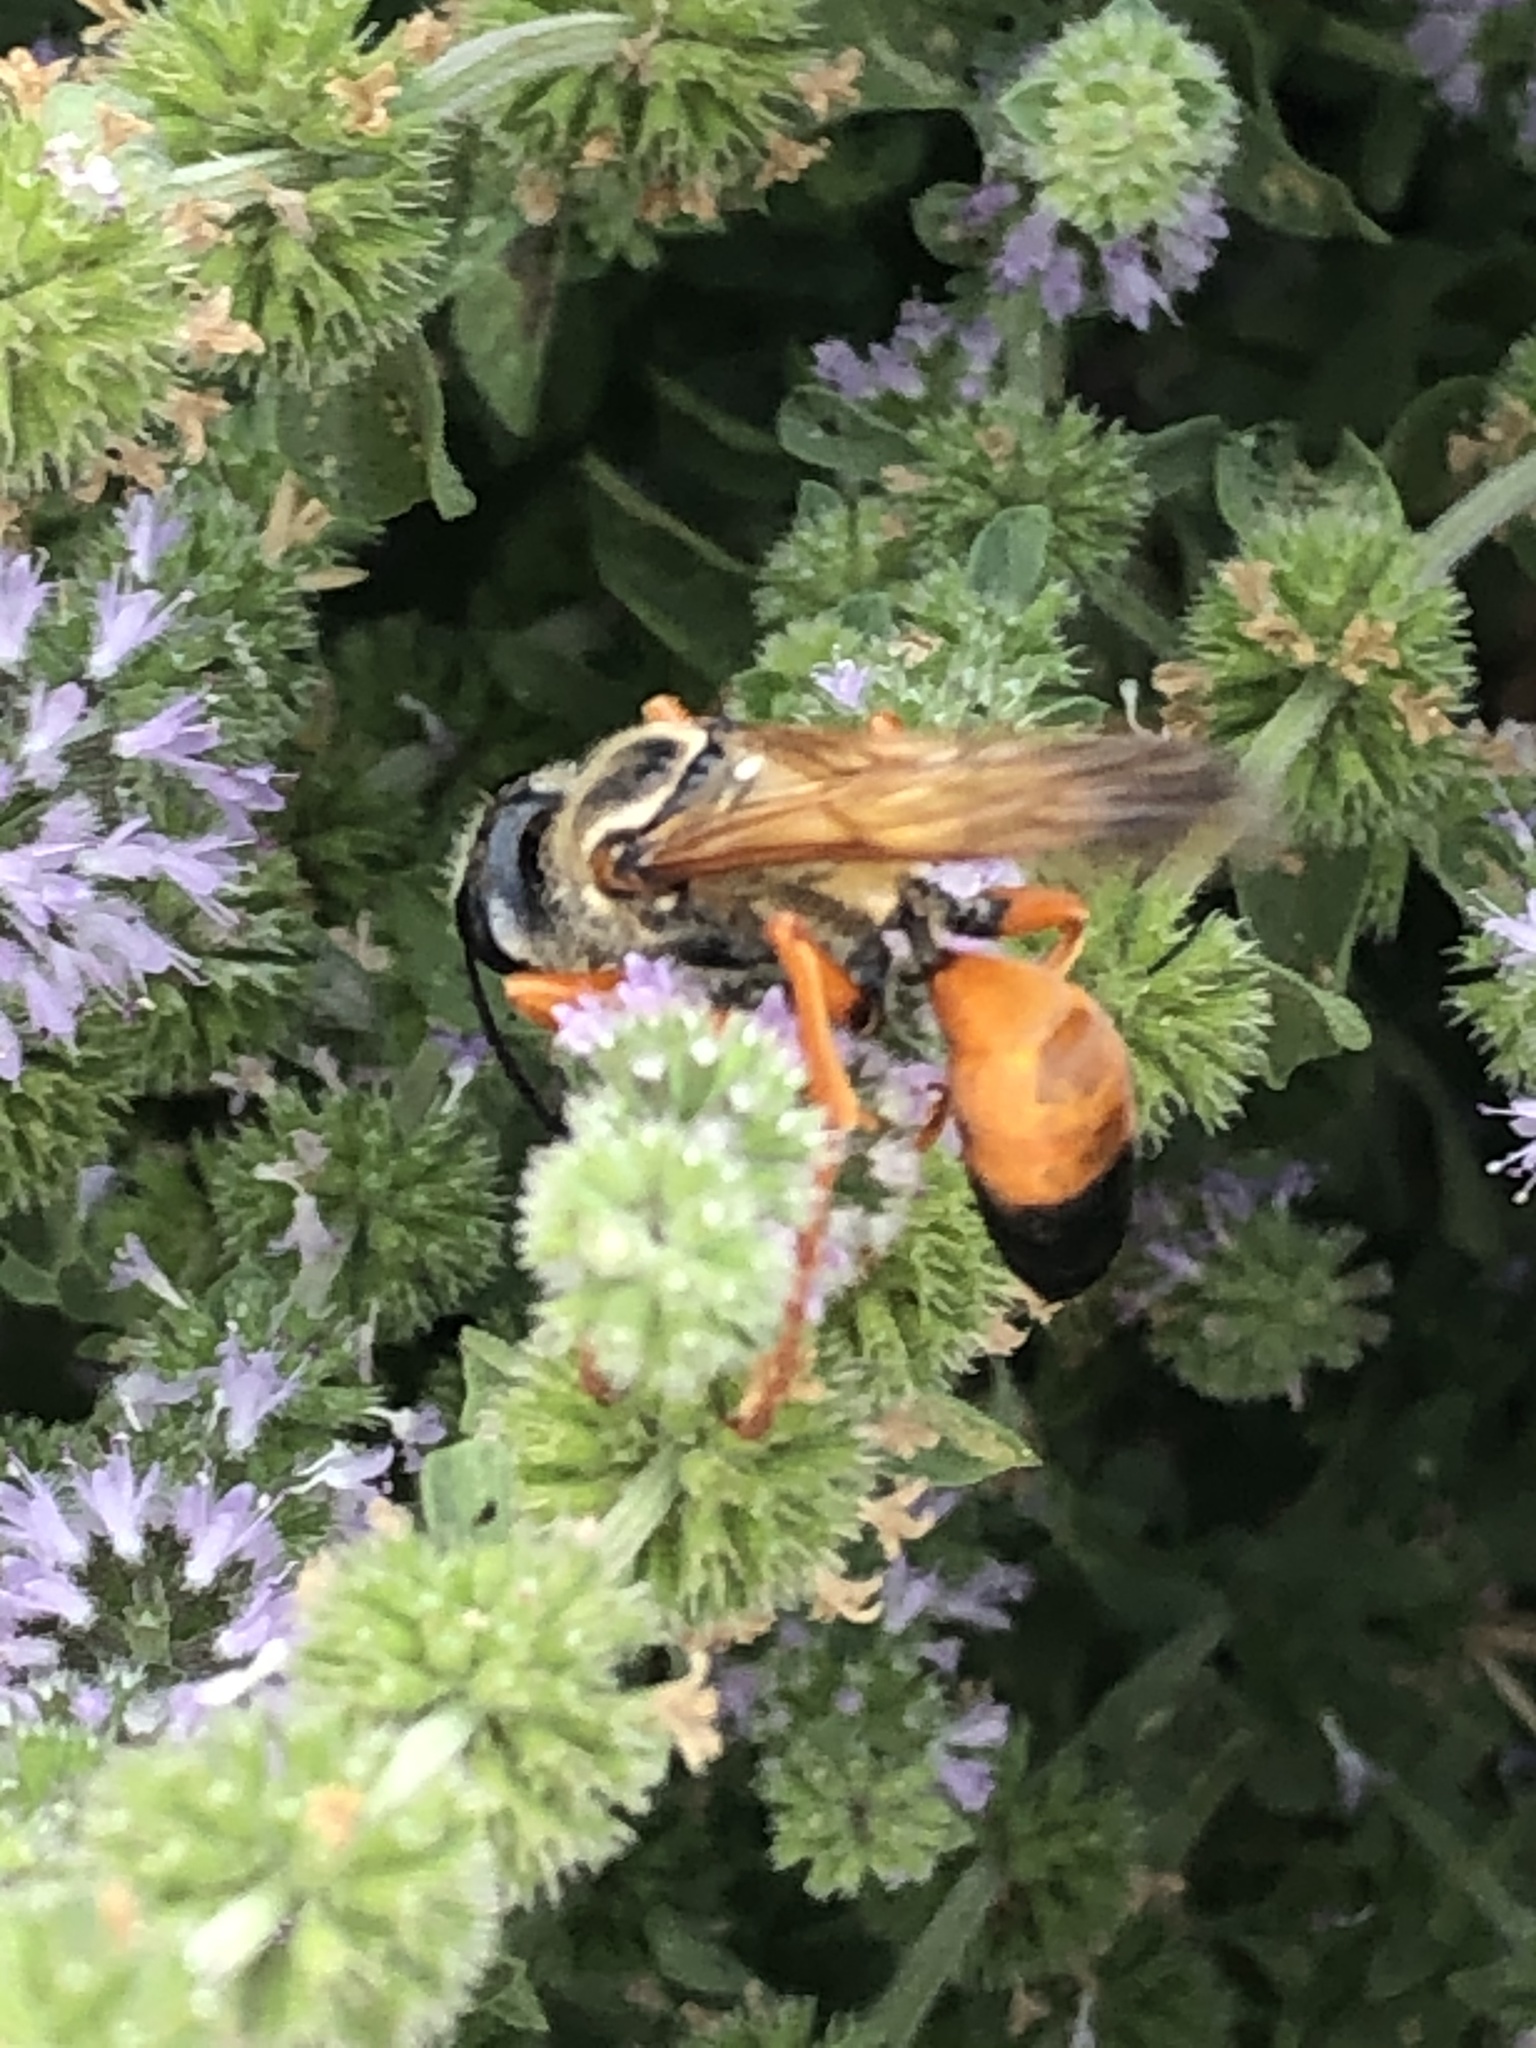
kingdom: Animalia
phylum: Arthropoda
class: Insecta
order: Hymenoptera
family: Sphecidae
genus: Sphex
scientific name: Sphex ichneumoneus
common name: Great golden digger wasp
